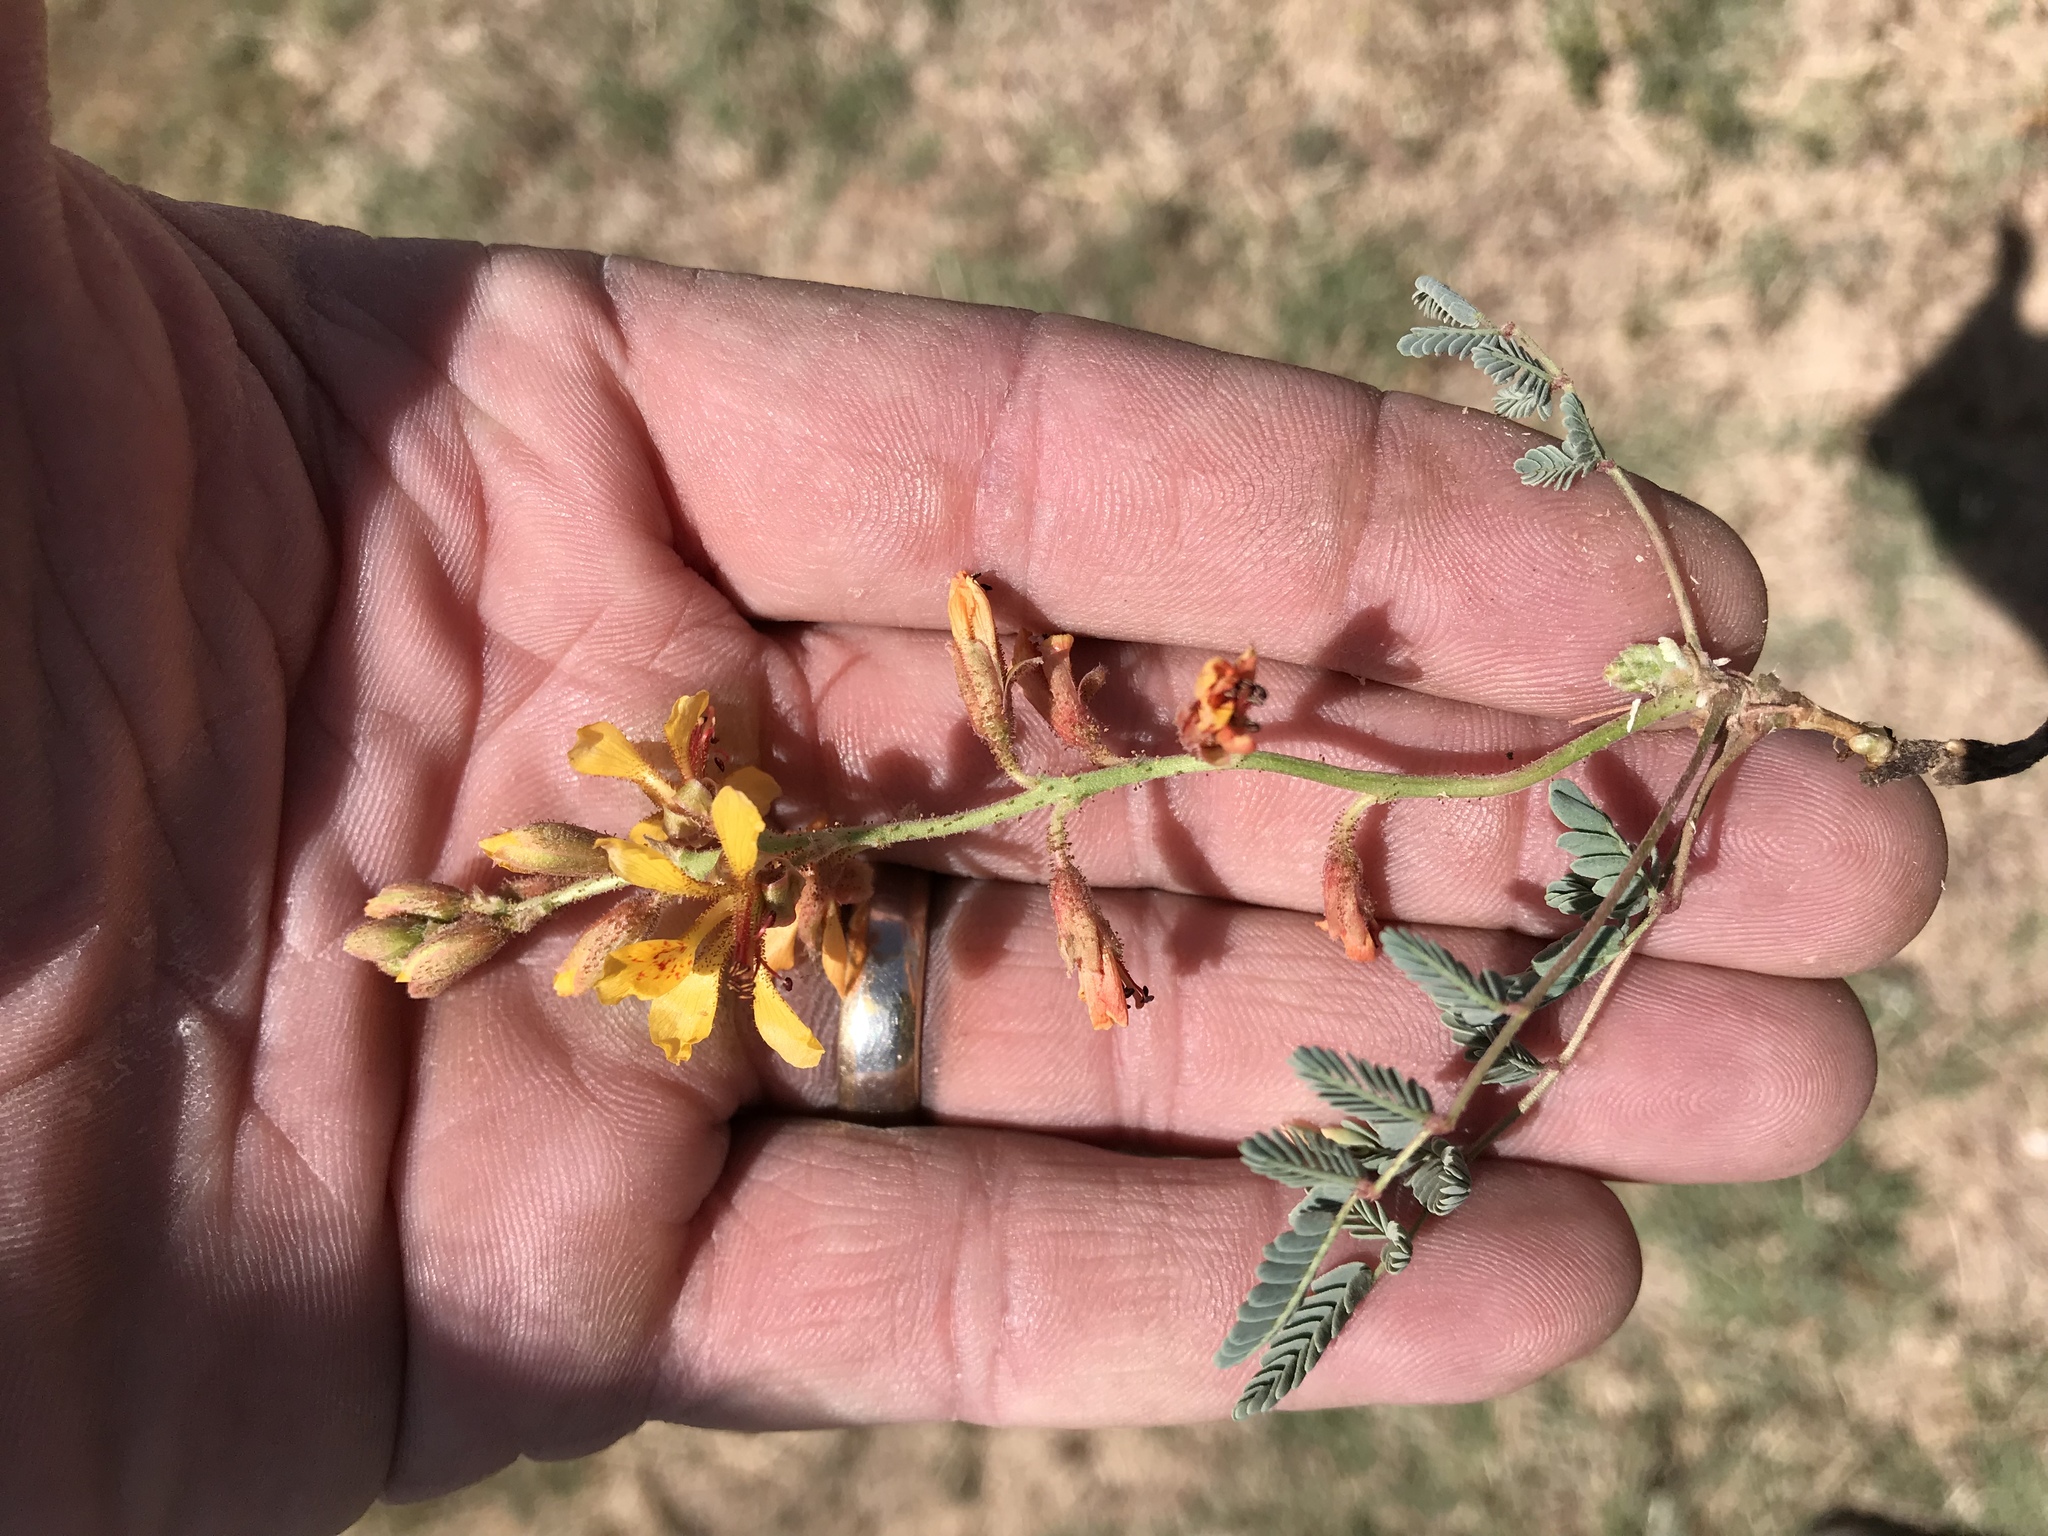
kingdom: Plantae
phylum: Tracheophyta
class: Magnoliopsida
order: Fabales
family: Fabaceae
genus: Hoffmannseggia
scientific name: Hoffmannseggia glauca
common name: Pignut
